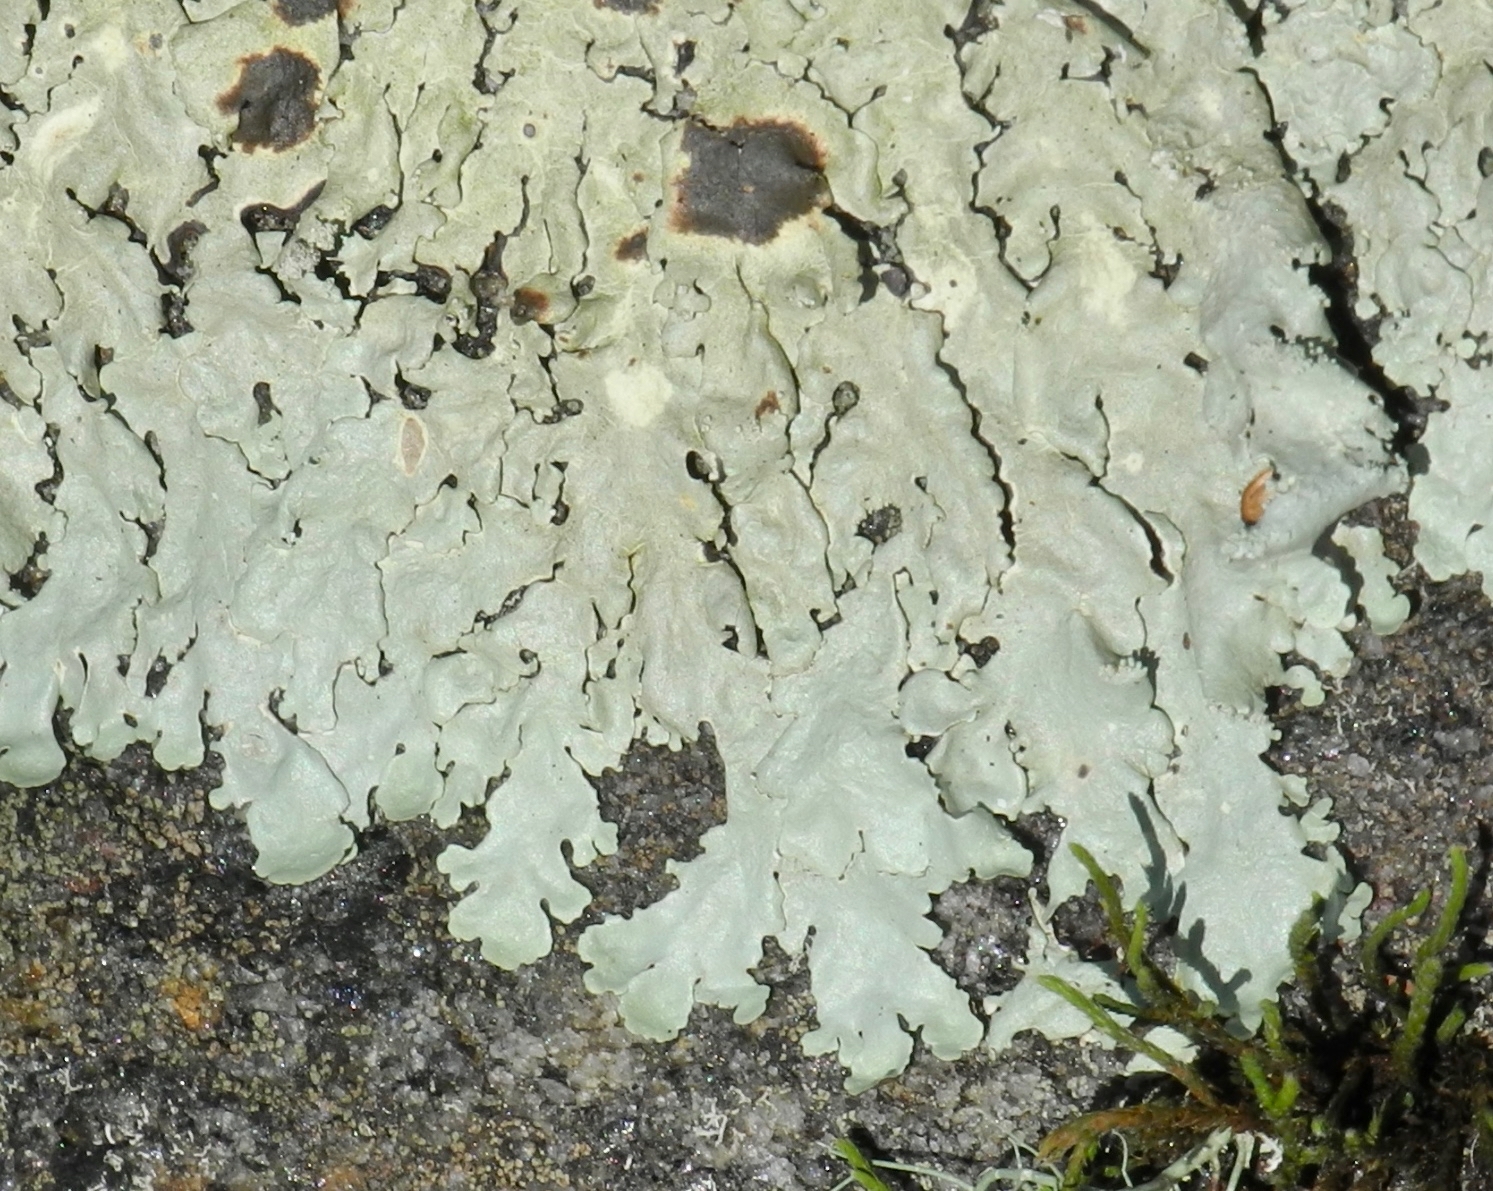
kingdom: Fungi
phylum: Ascomycota
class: Lecanoromycetes
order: Lecanorales
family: Parmeliaceae
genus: Flavoparmelia
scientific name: Flavoparmelia caperata
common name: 40-mile per hour lichen
